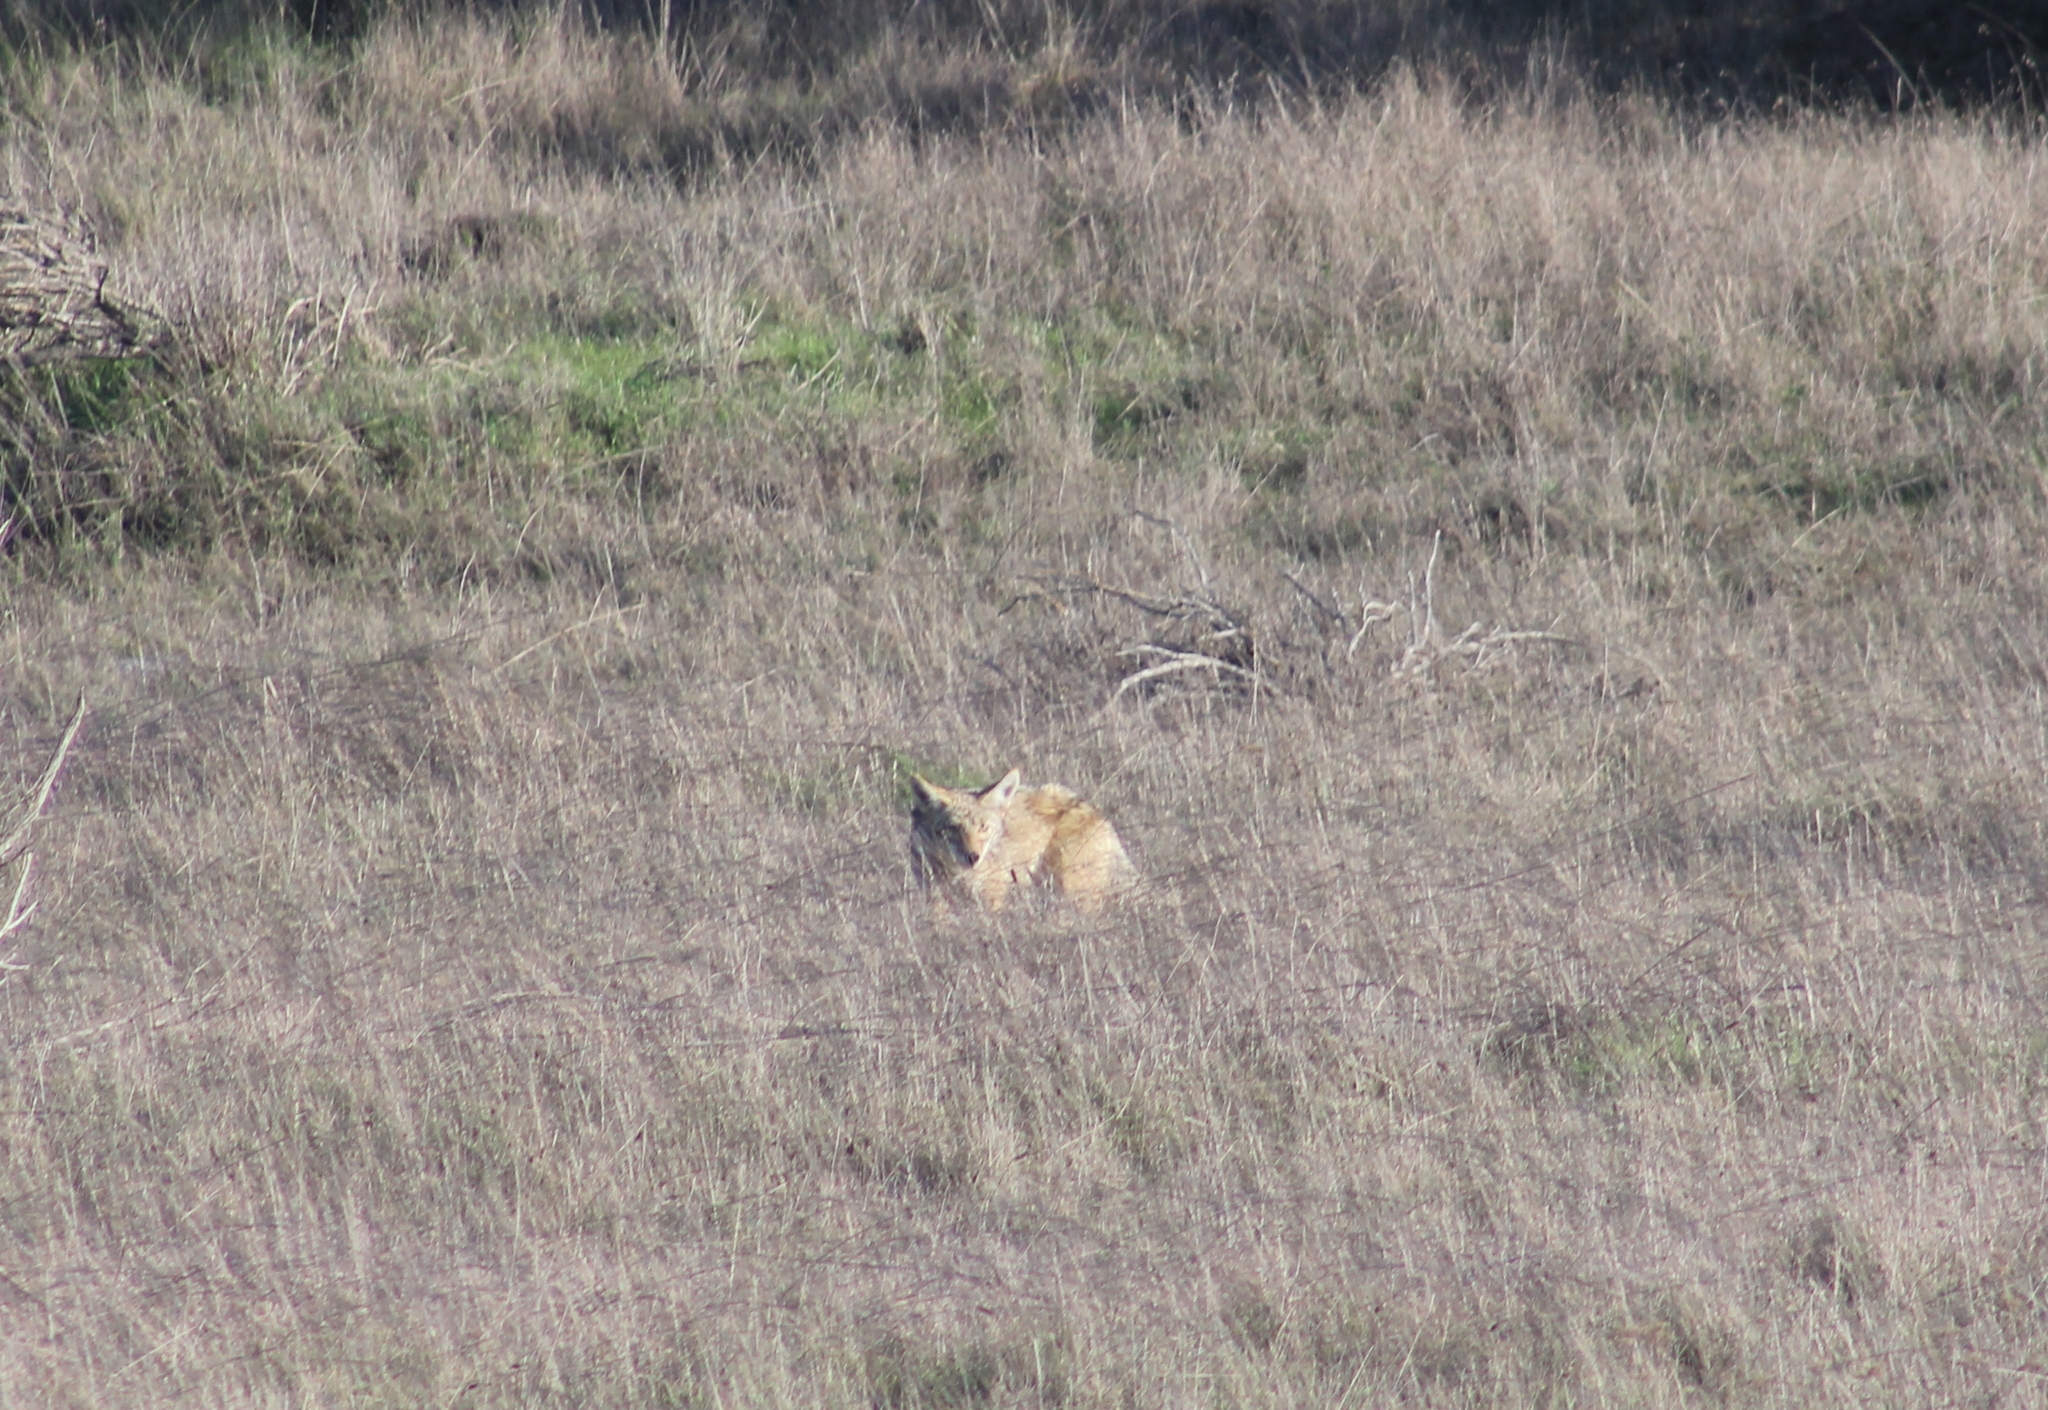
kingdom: Animalia
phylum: Chordata
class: Mammalia
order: Carnivora
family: Canidae
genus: Canis
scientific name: Canis latrans
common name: Coyote
